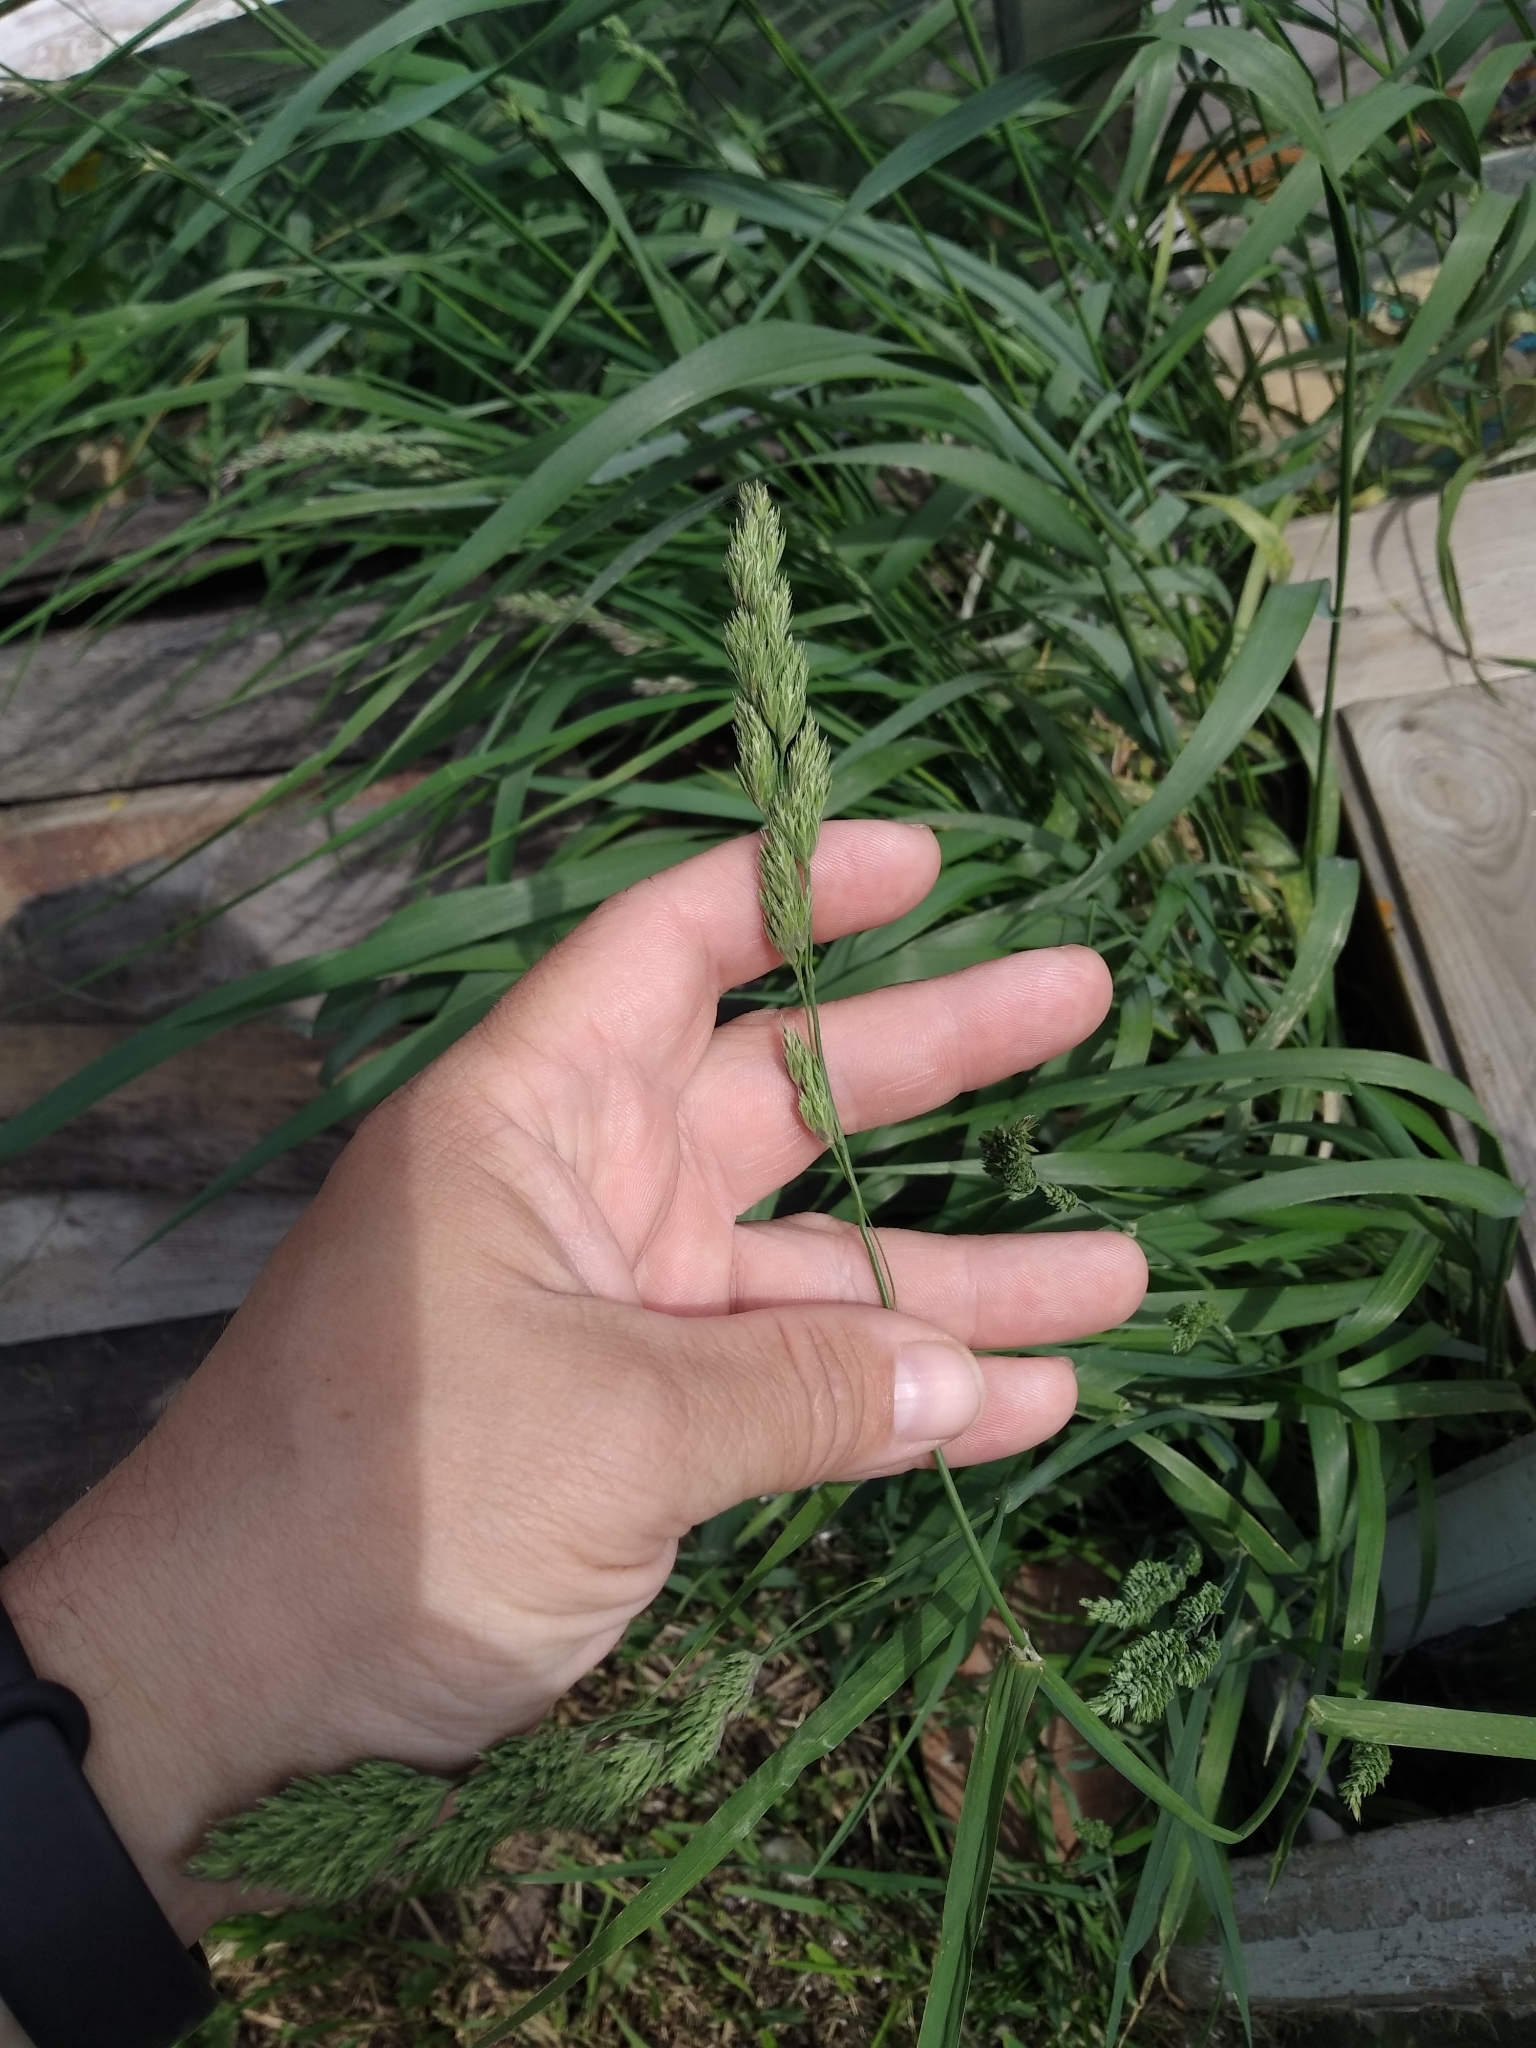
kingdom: Plantae
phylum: Tracheophyta
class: Liliopsida
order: Poales
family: Poaceae
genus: Dactylis
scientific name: Dactylis glomerata
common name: Orchardgrass
